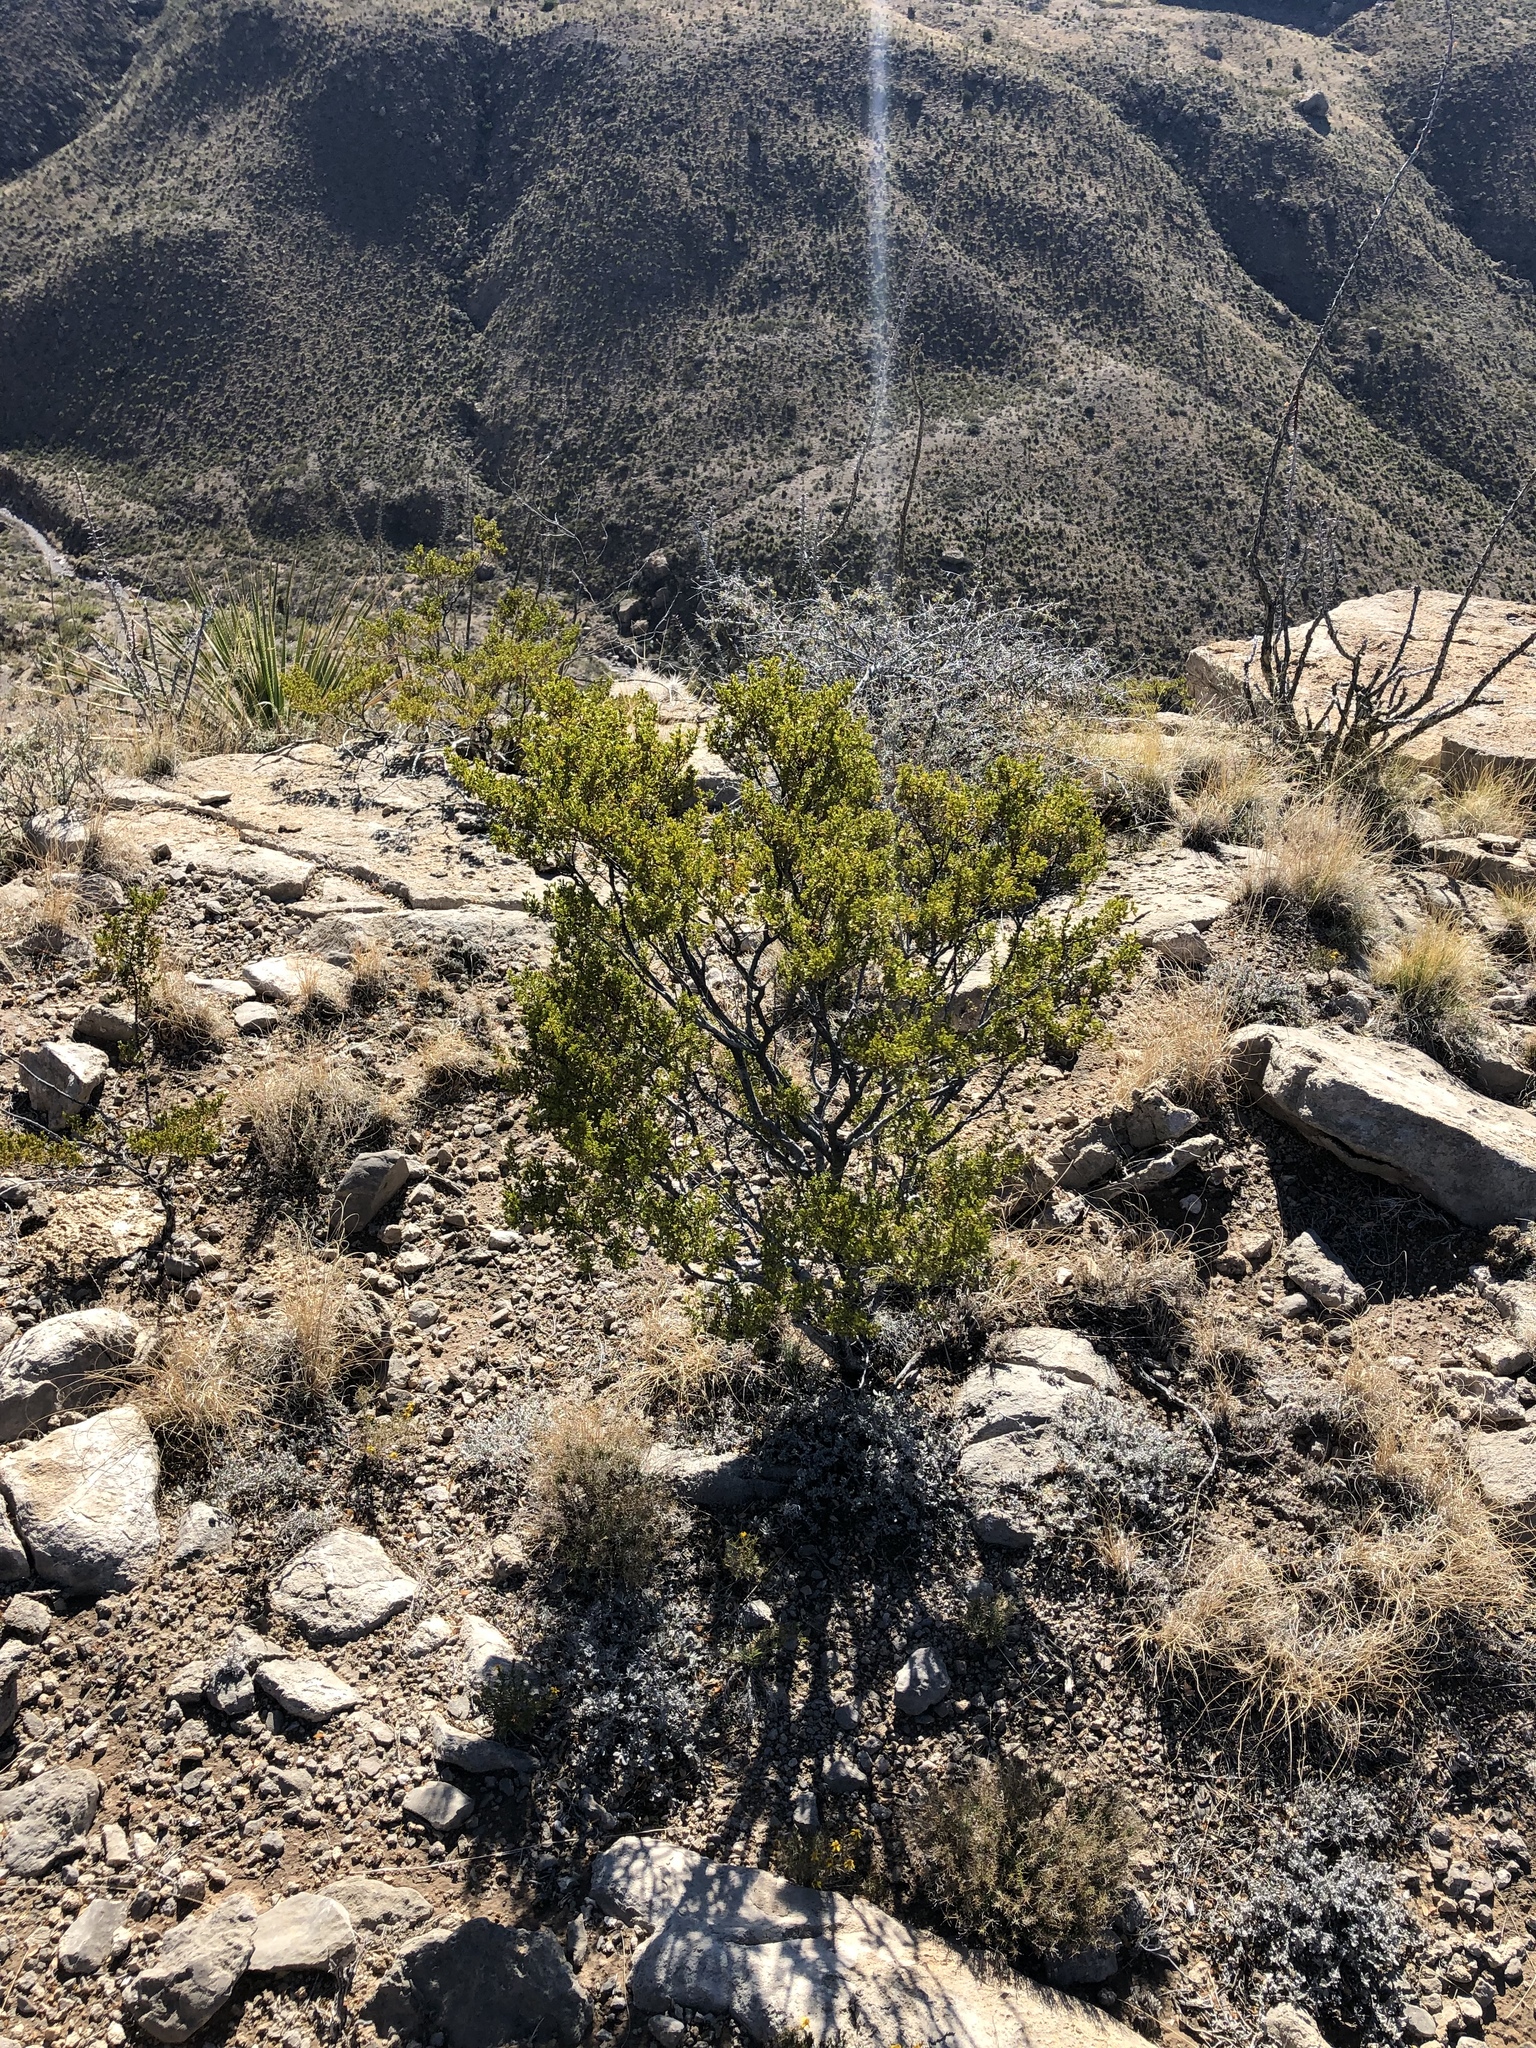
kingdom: Plantae
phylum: Tracheophyta
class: Magnoliopsida
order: Zygophyllales
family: Zygophyllaceae
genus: Larrea
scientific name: Larrea tridentata
